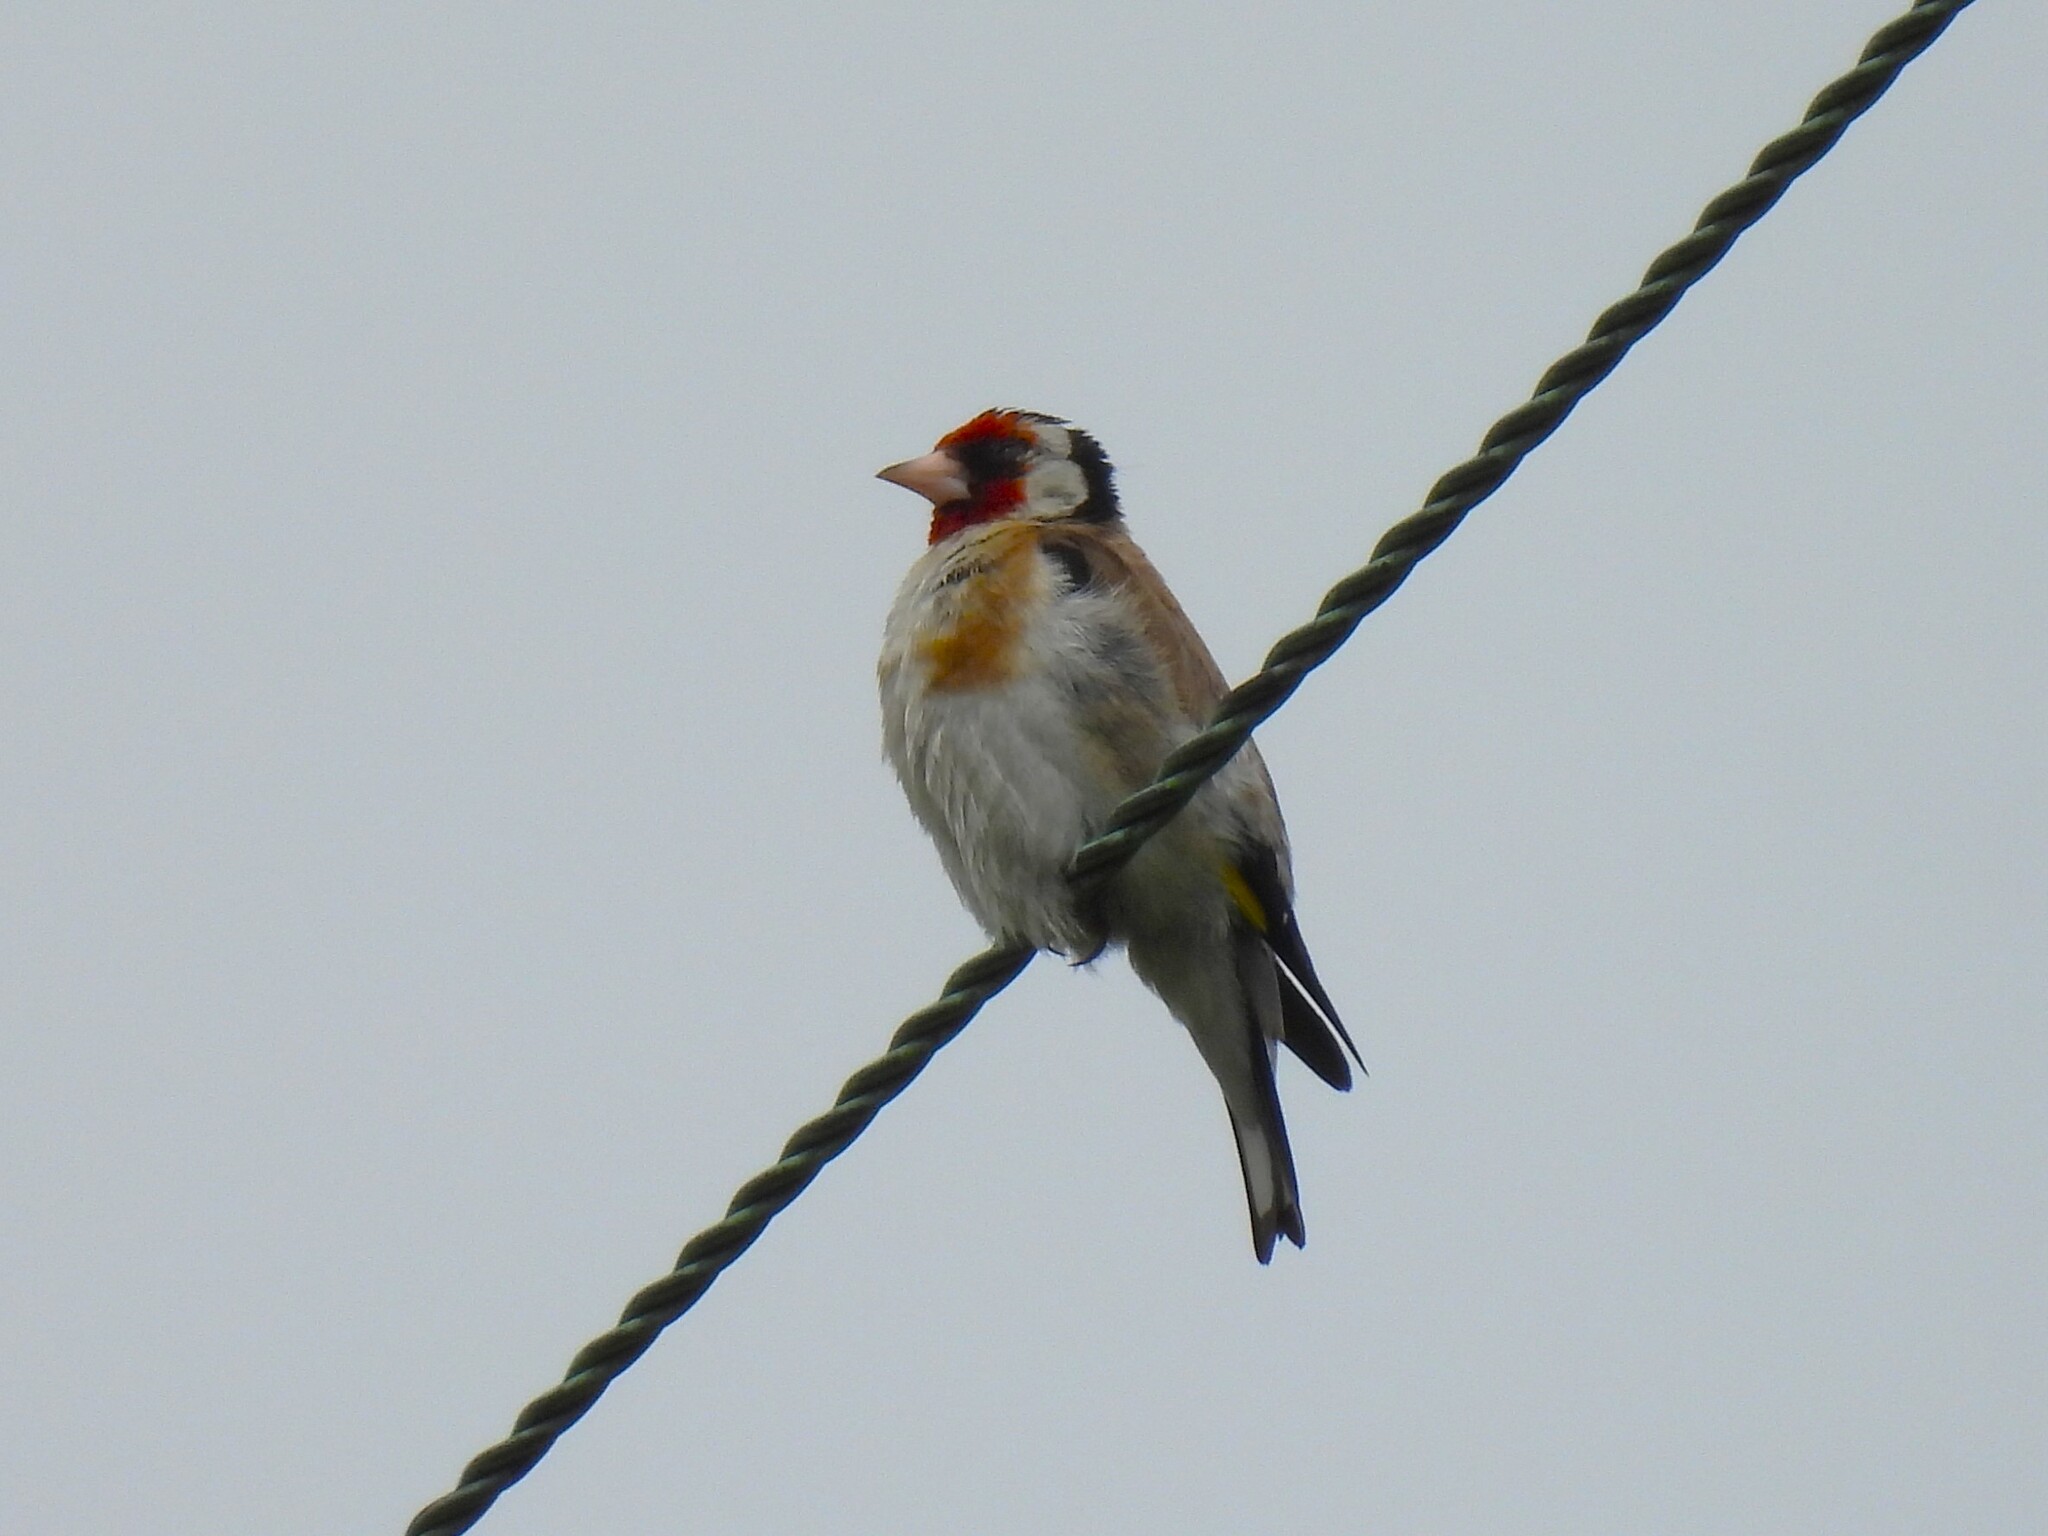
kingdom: Animalia
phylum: Chordata
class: Aves
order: Passeriformes
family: Fringillidae
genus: Carduelis
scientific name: Carduelis carduelis
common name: European goldfinch
